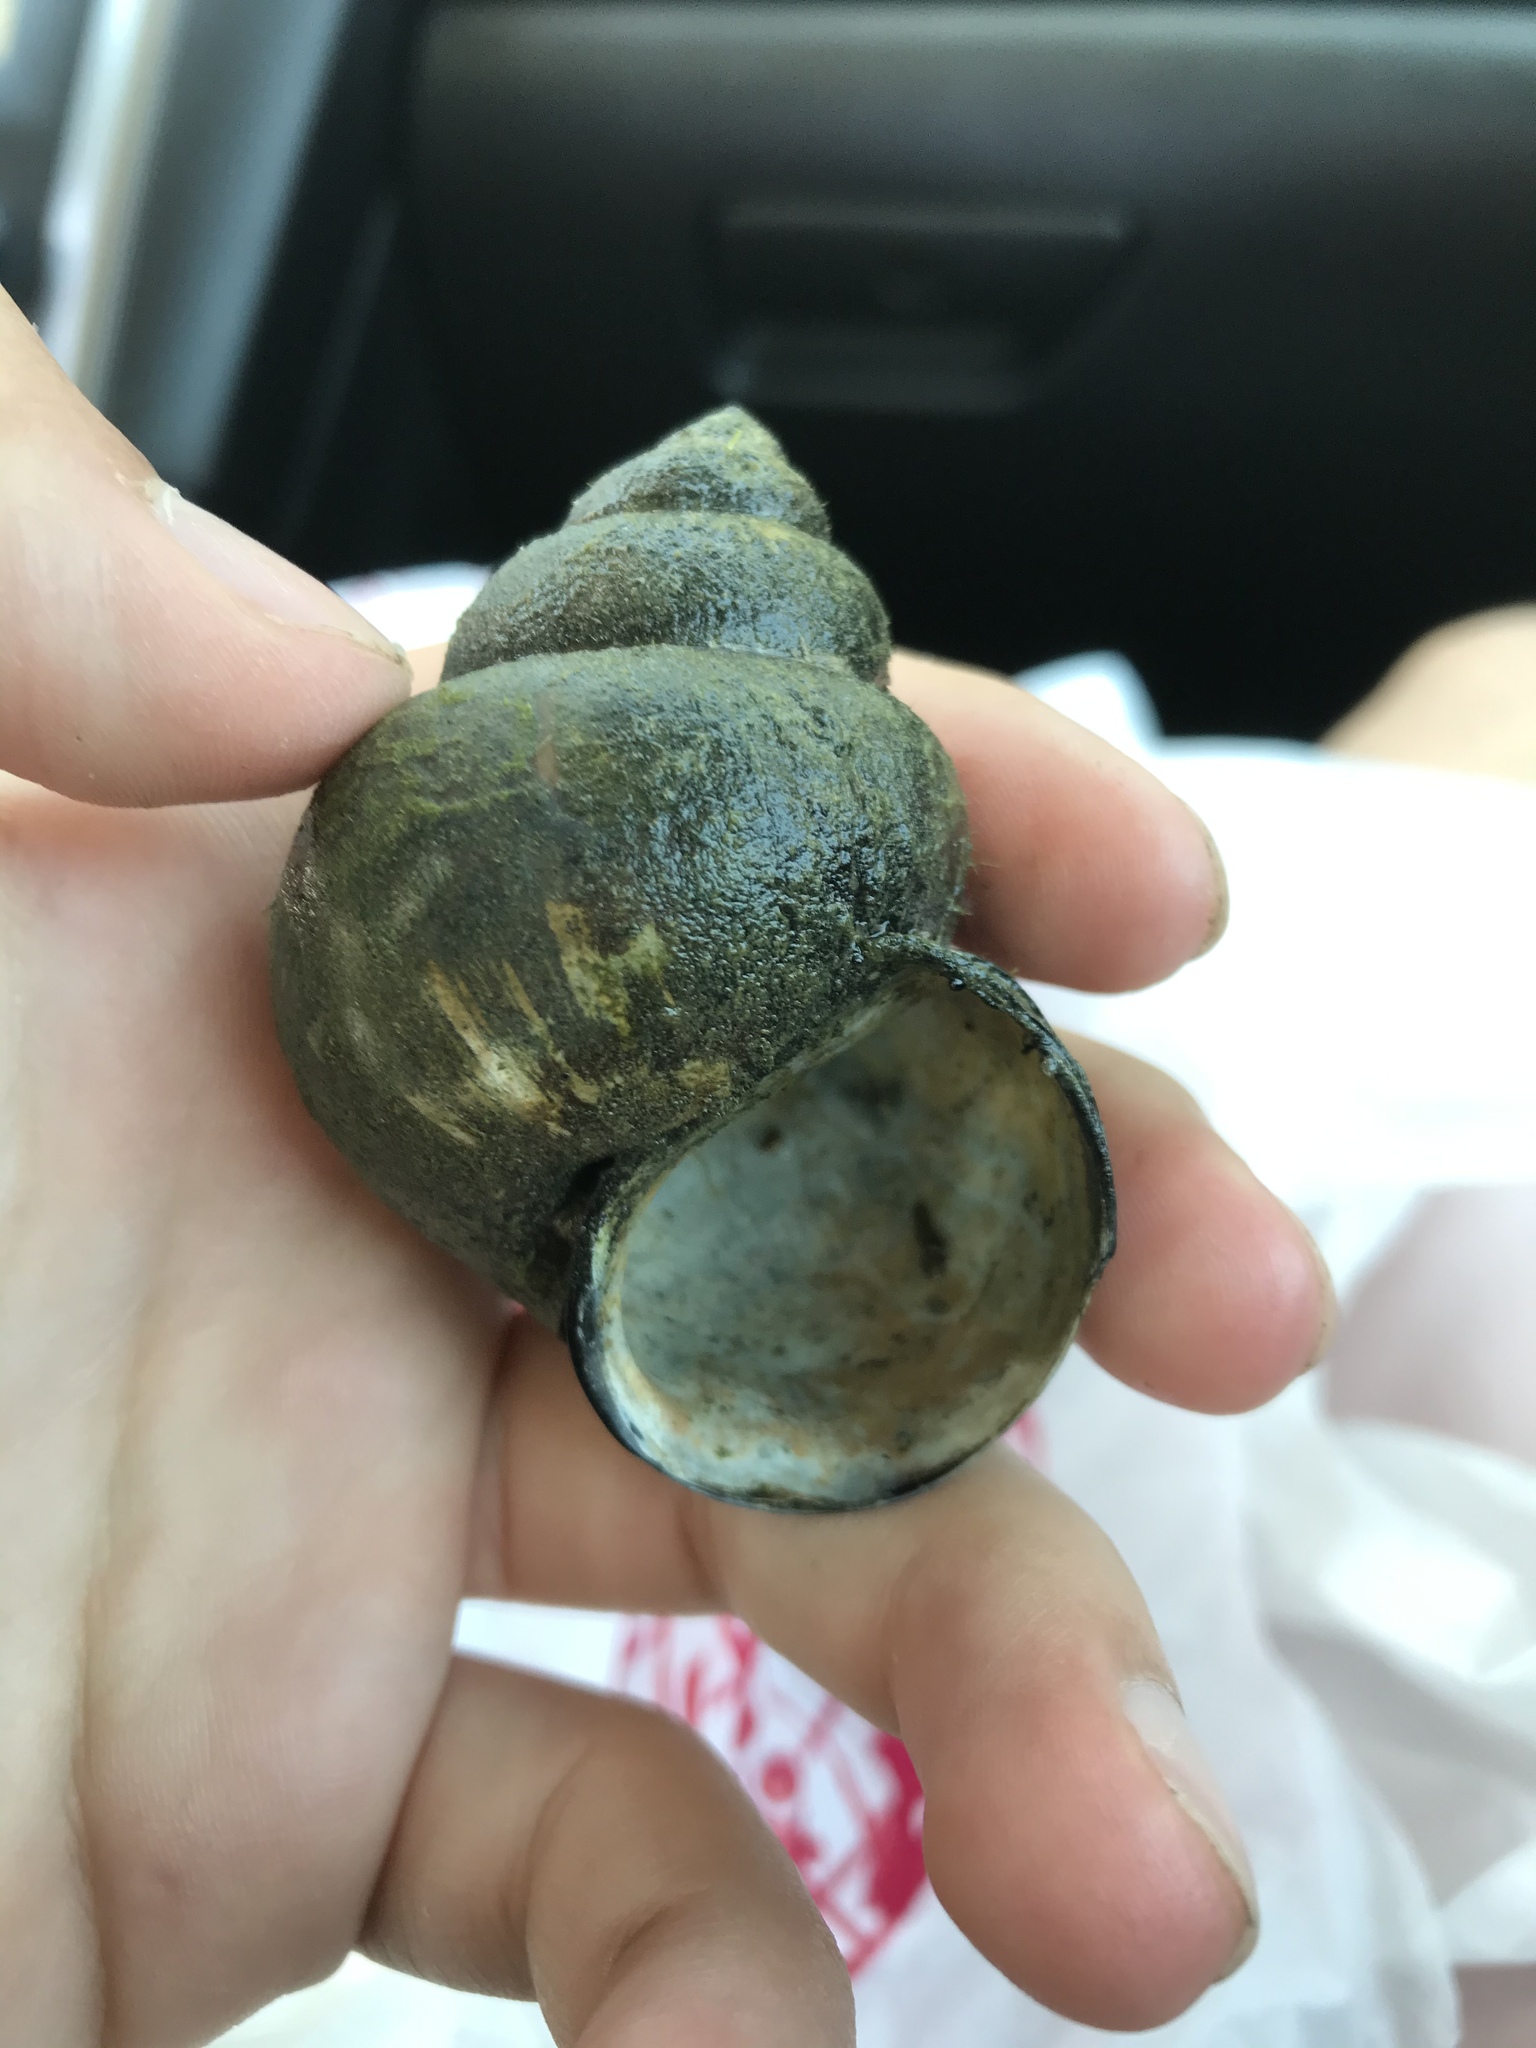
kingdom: Animalia
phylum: Mollusca
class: Gastropoda
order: Architaenioglossa
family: Viviparidae
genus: Cipangopaludina
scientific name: Cipangopaludina chinensis
